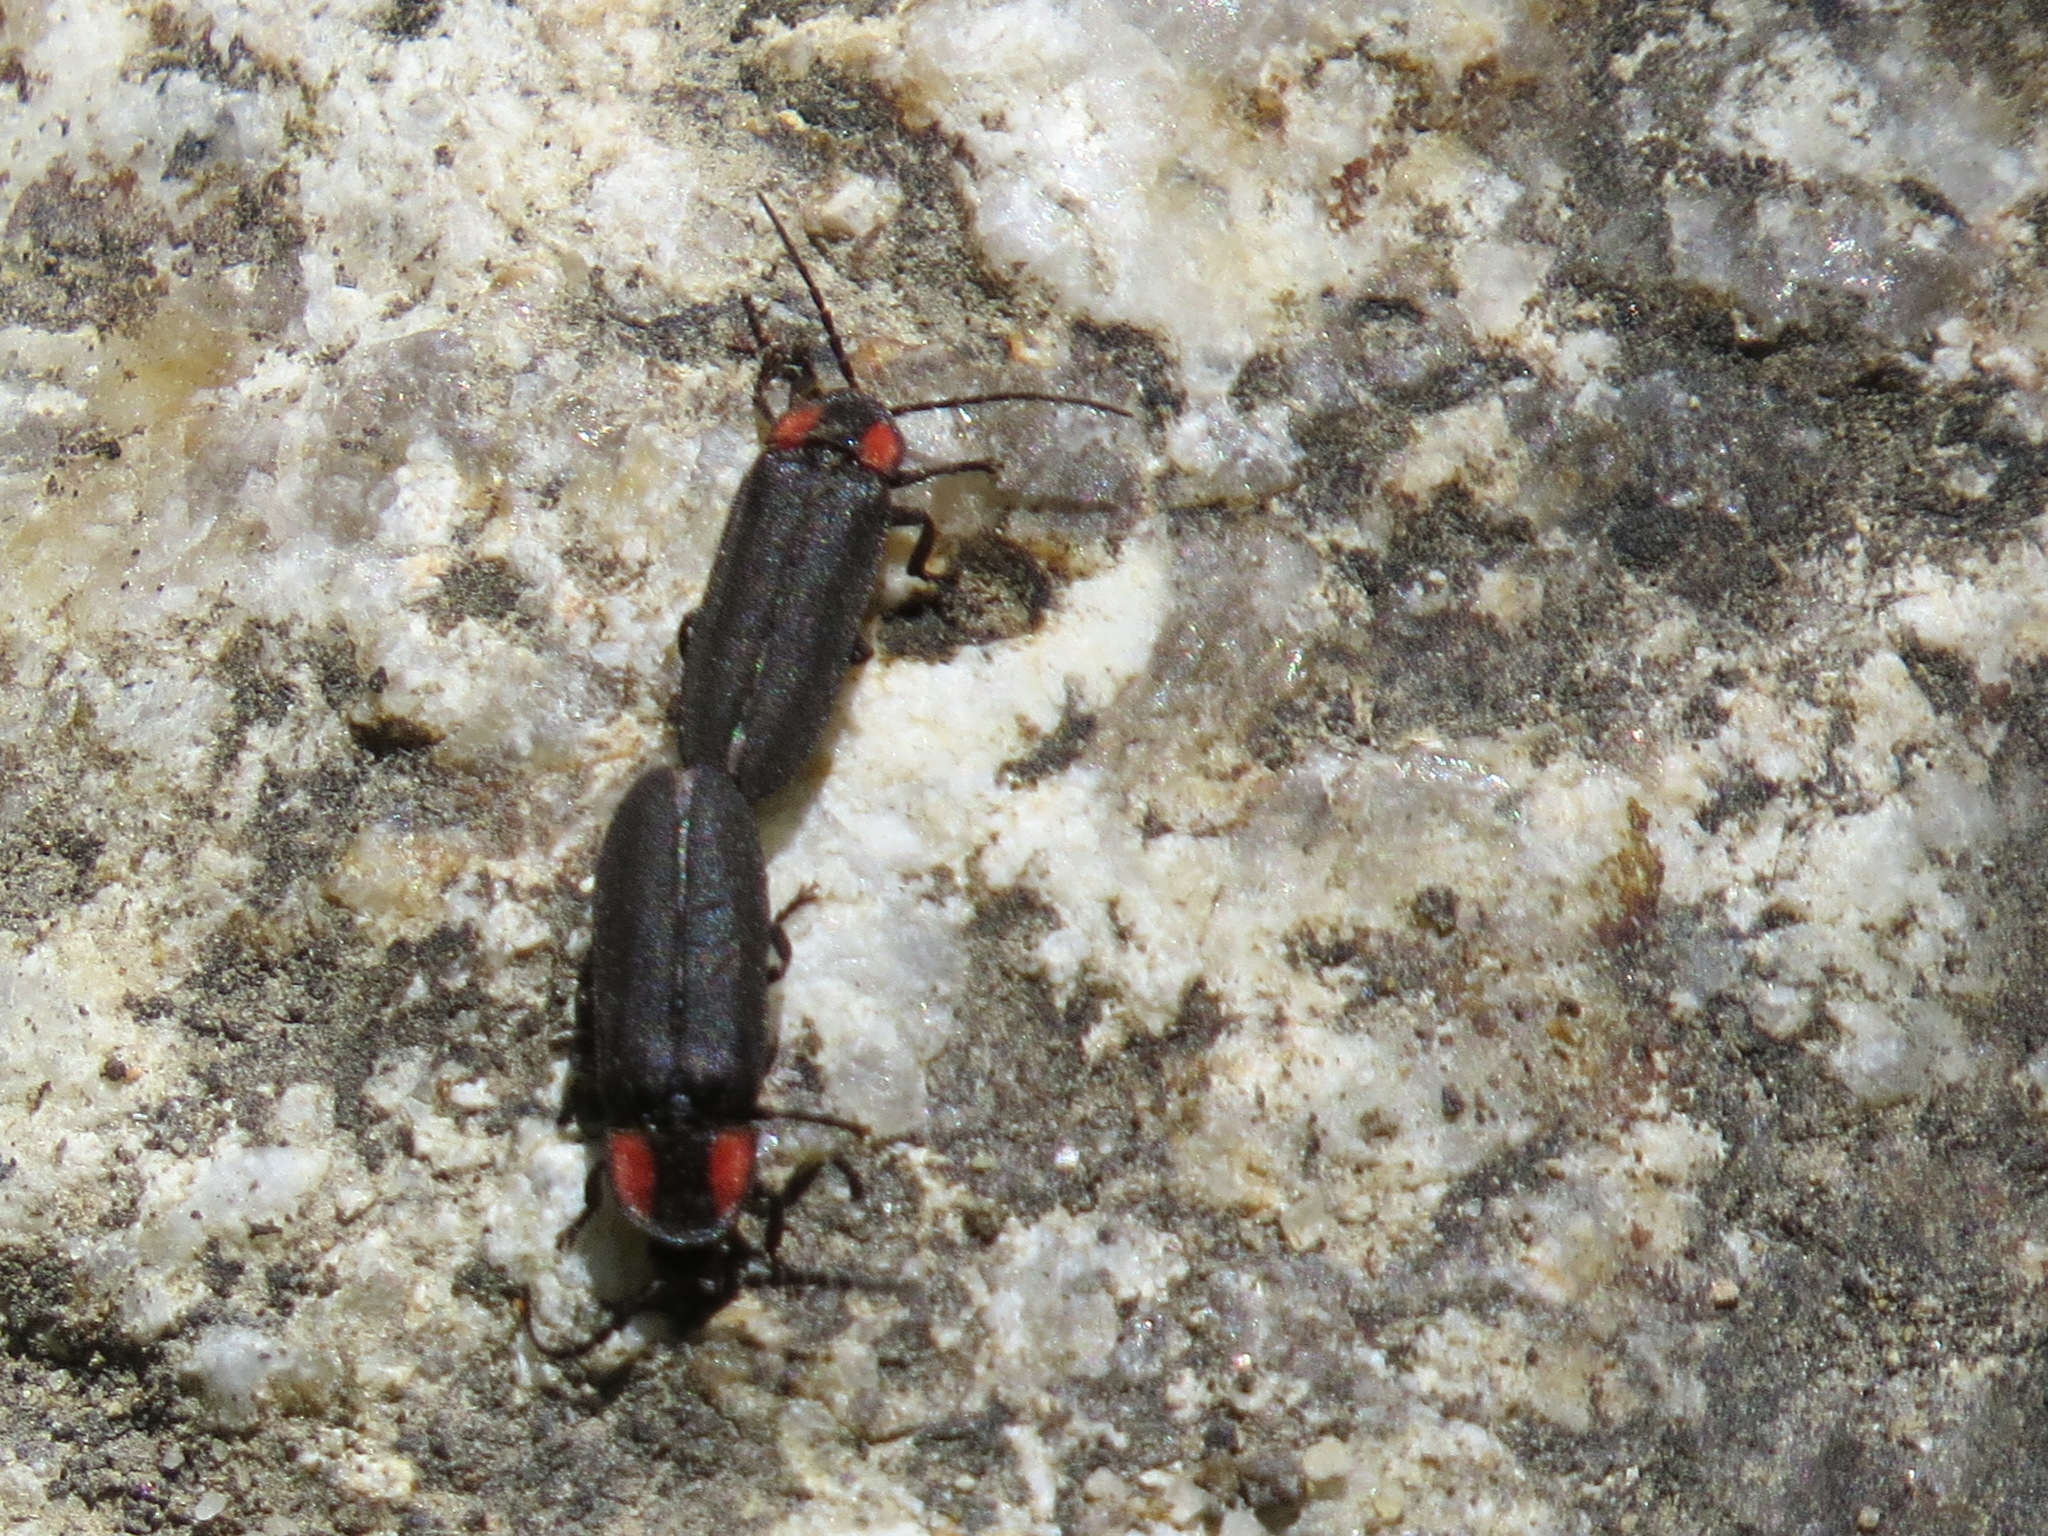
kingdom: Animalia
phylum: Arthropoda
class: Insecta
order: Coleoptera
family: Lampyridae
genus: Pyropyga
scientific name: Pyropyga nigricans
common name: Dark firefly
